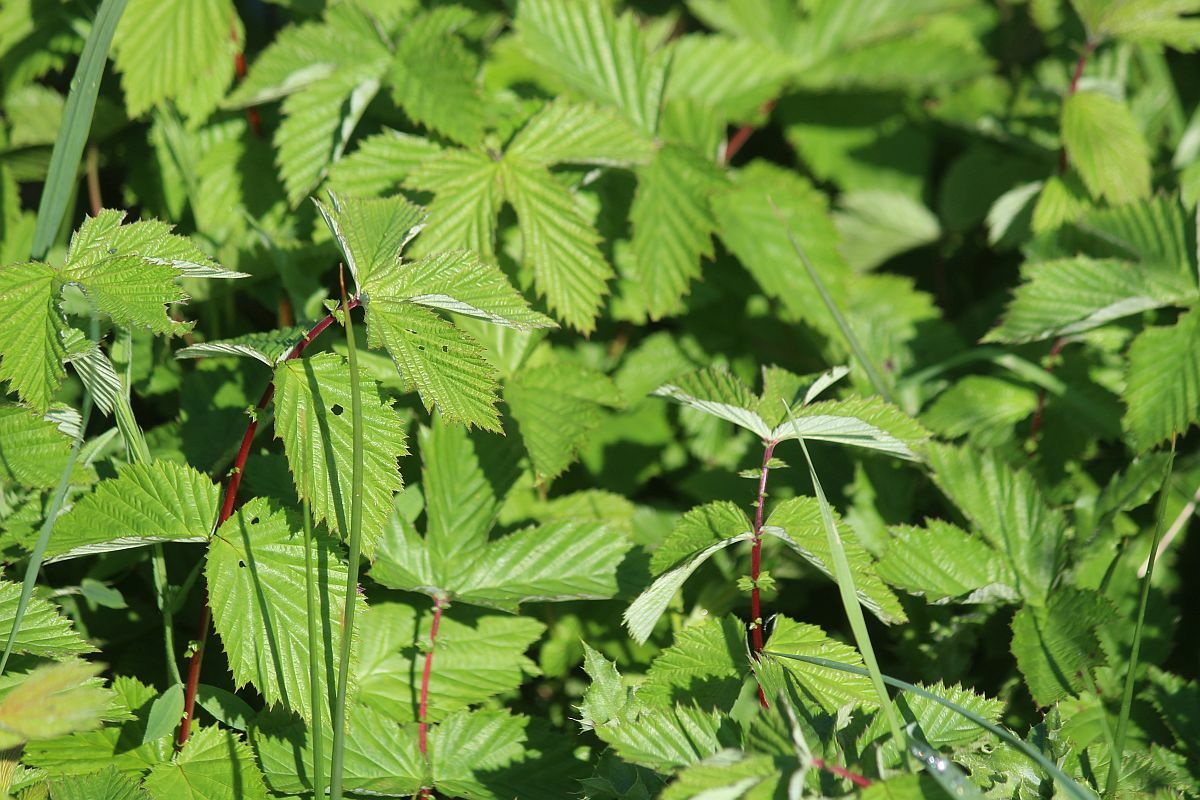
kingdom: Plantae
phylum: Tracheophyta
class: Magnoliopsida
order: Rosales
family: Rosaceae
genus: Filipendula
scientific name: Filipendula ulmaria
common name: Meadowsweet
